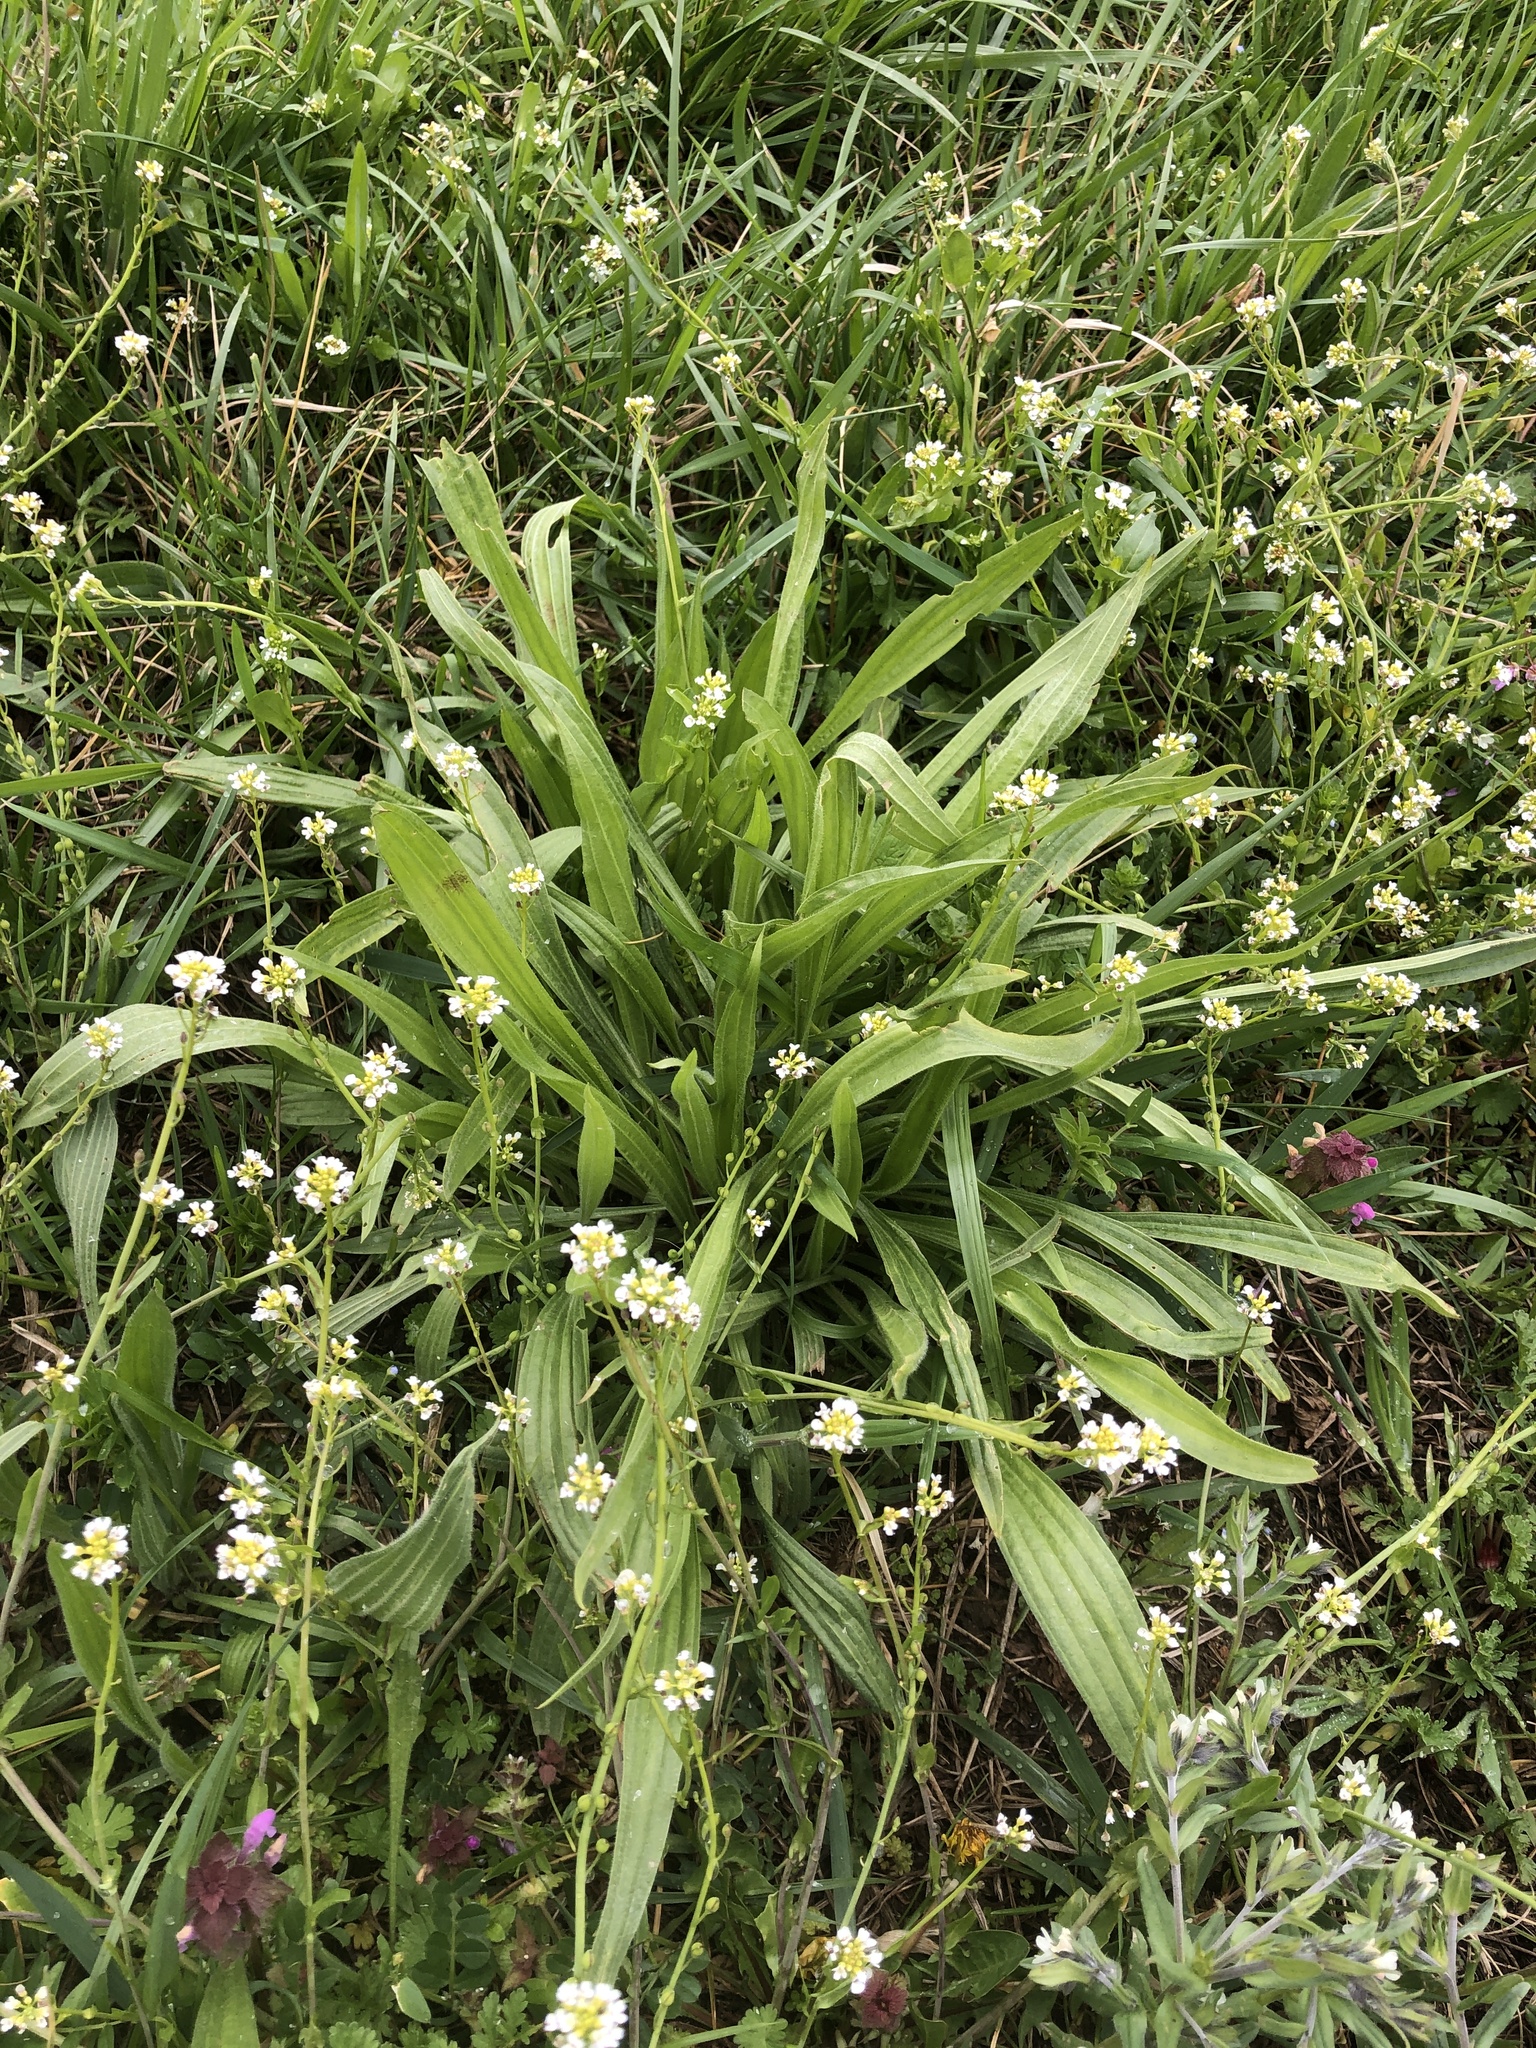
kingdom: Plantae
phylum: Tracheophyta
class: Magnoliopsida
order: Lamiales
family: Plantaginaceae
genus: Plantago
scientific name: Plantago lanceolata
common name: Ribwort plantain
